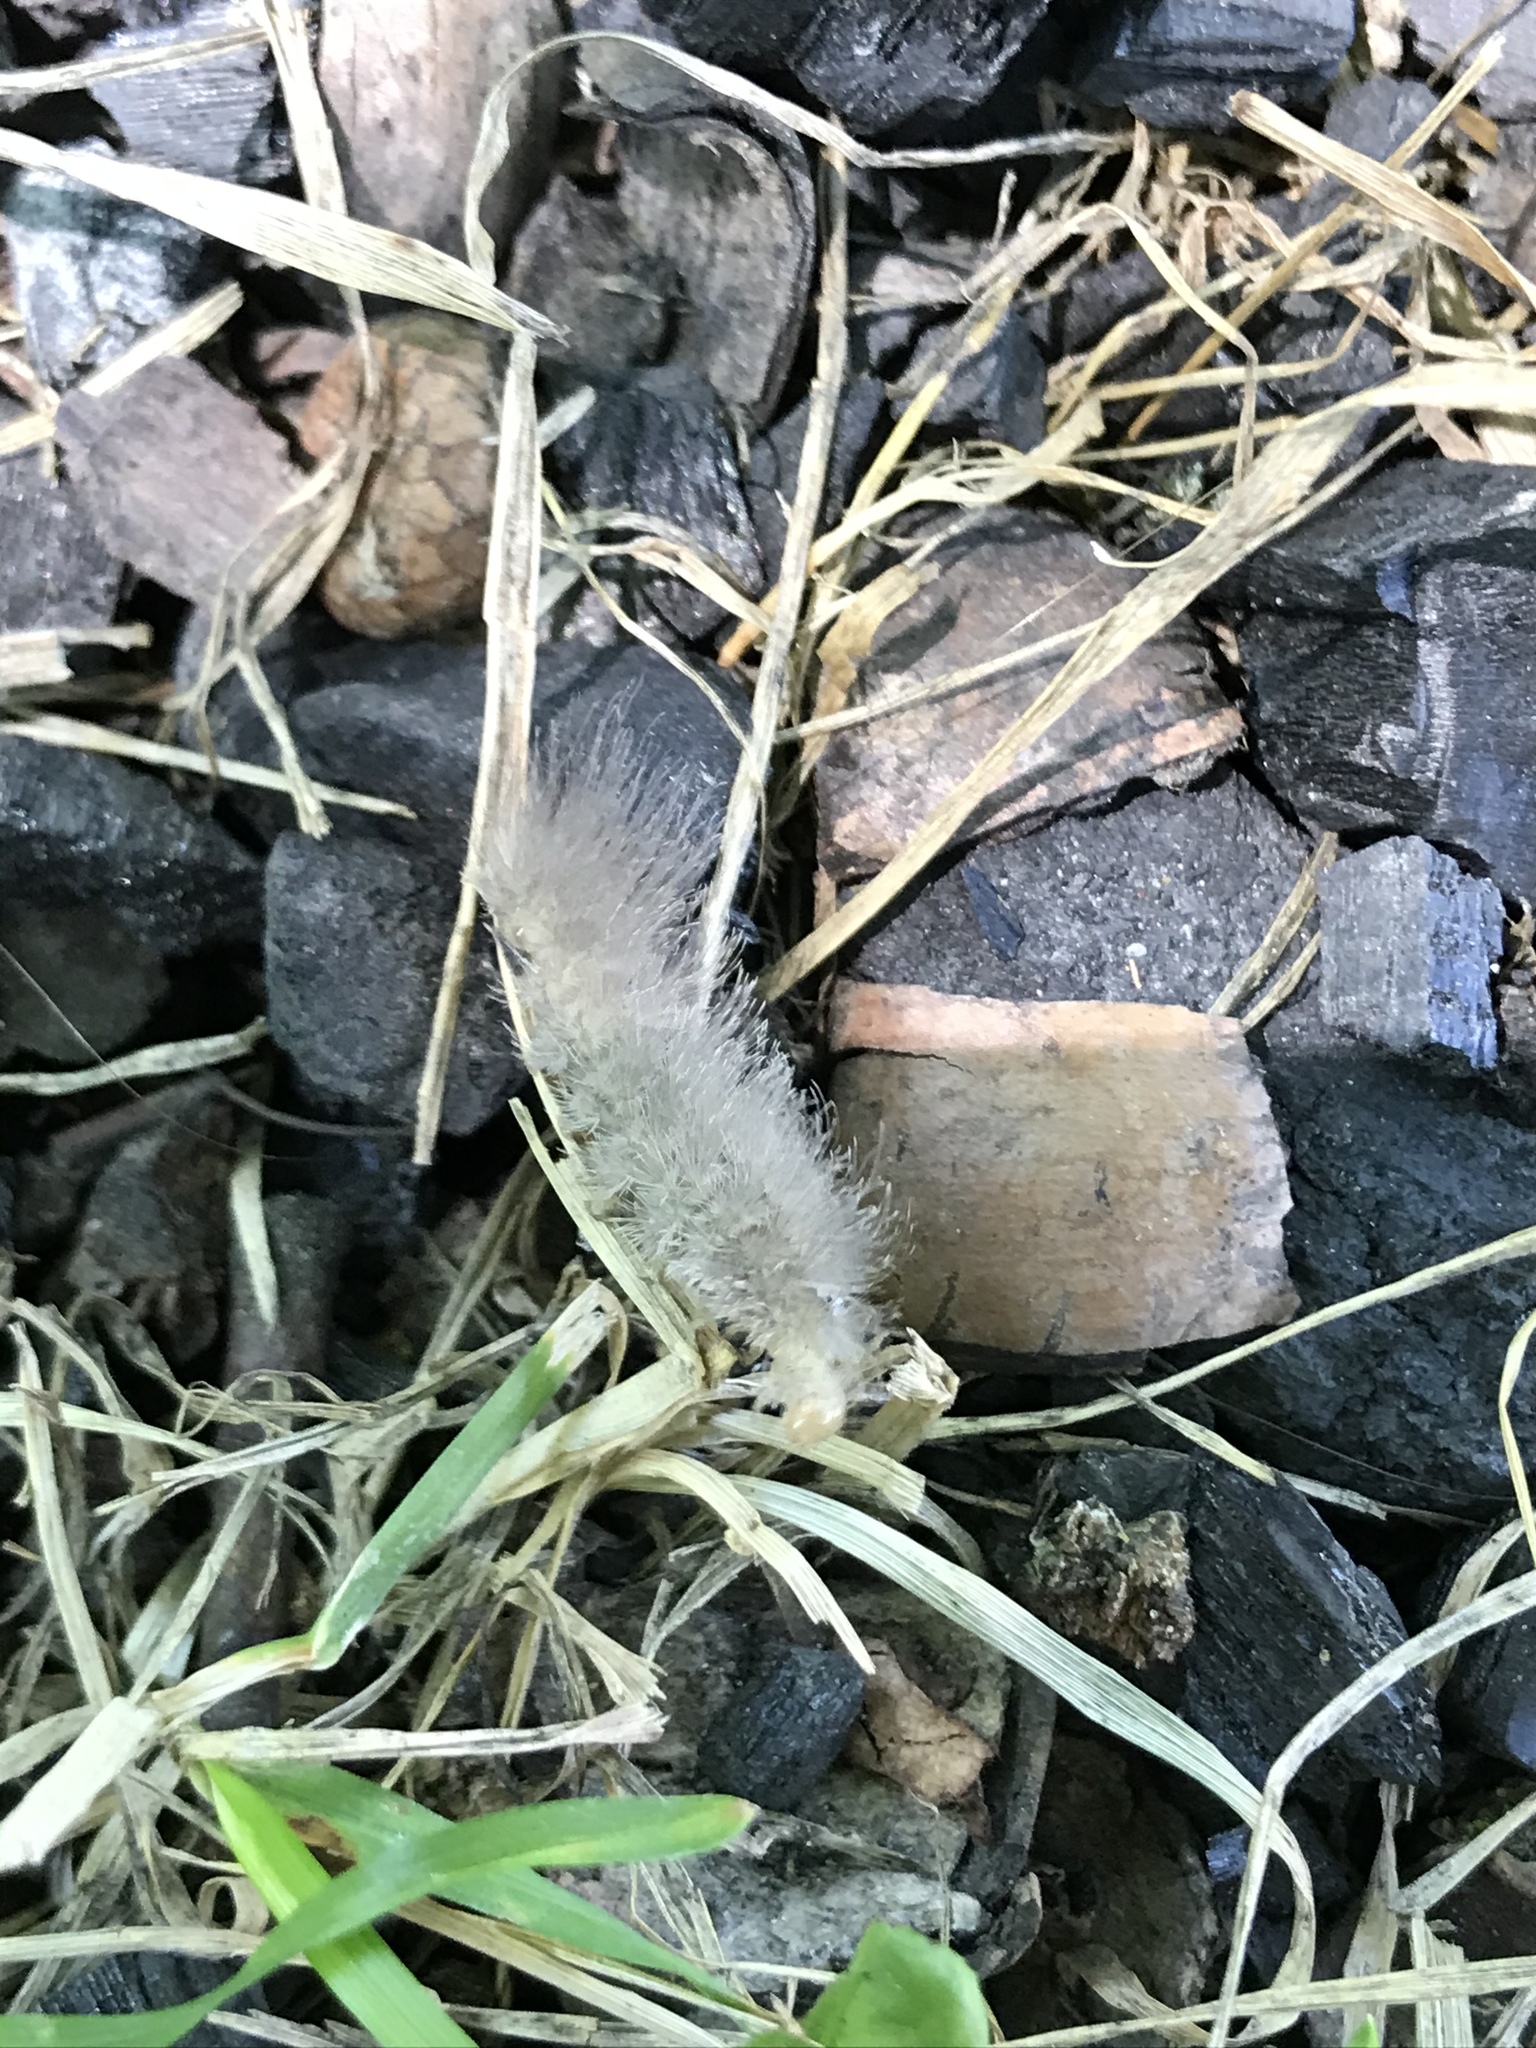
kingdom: Animalia
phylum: Arthropoda
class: Insecta
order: Lepidoptera
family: Erebidae
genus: Cycnia
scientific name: Cycnia tenera
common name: Delicate cycnia moth
